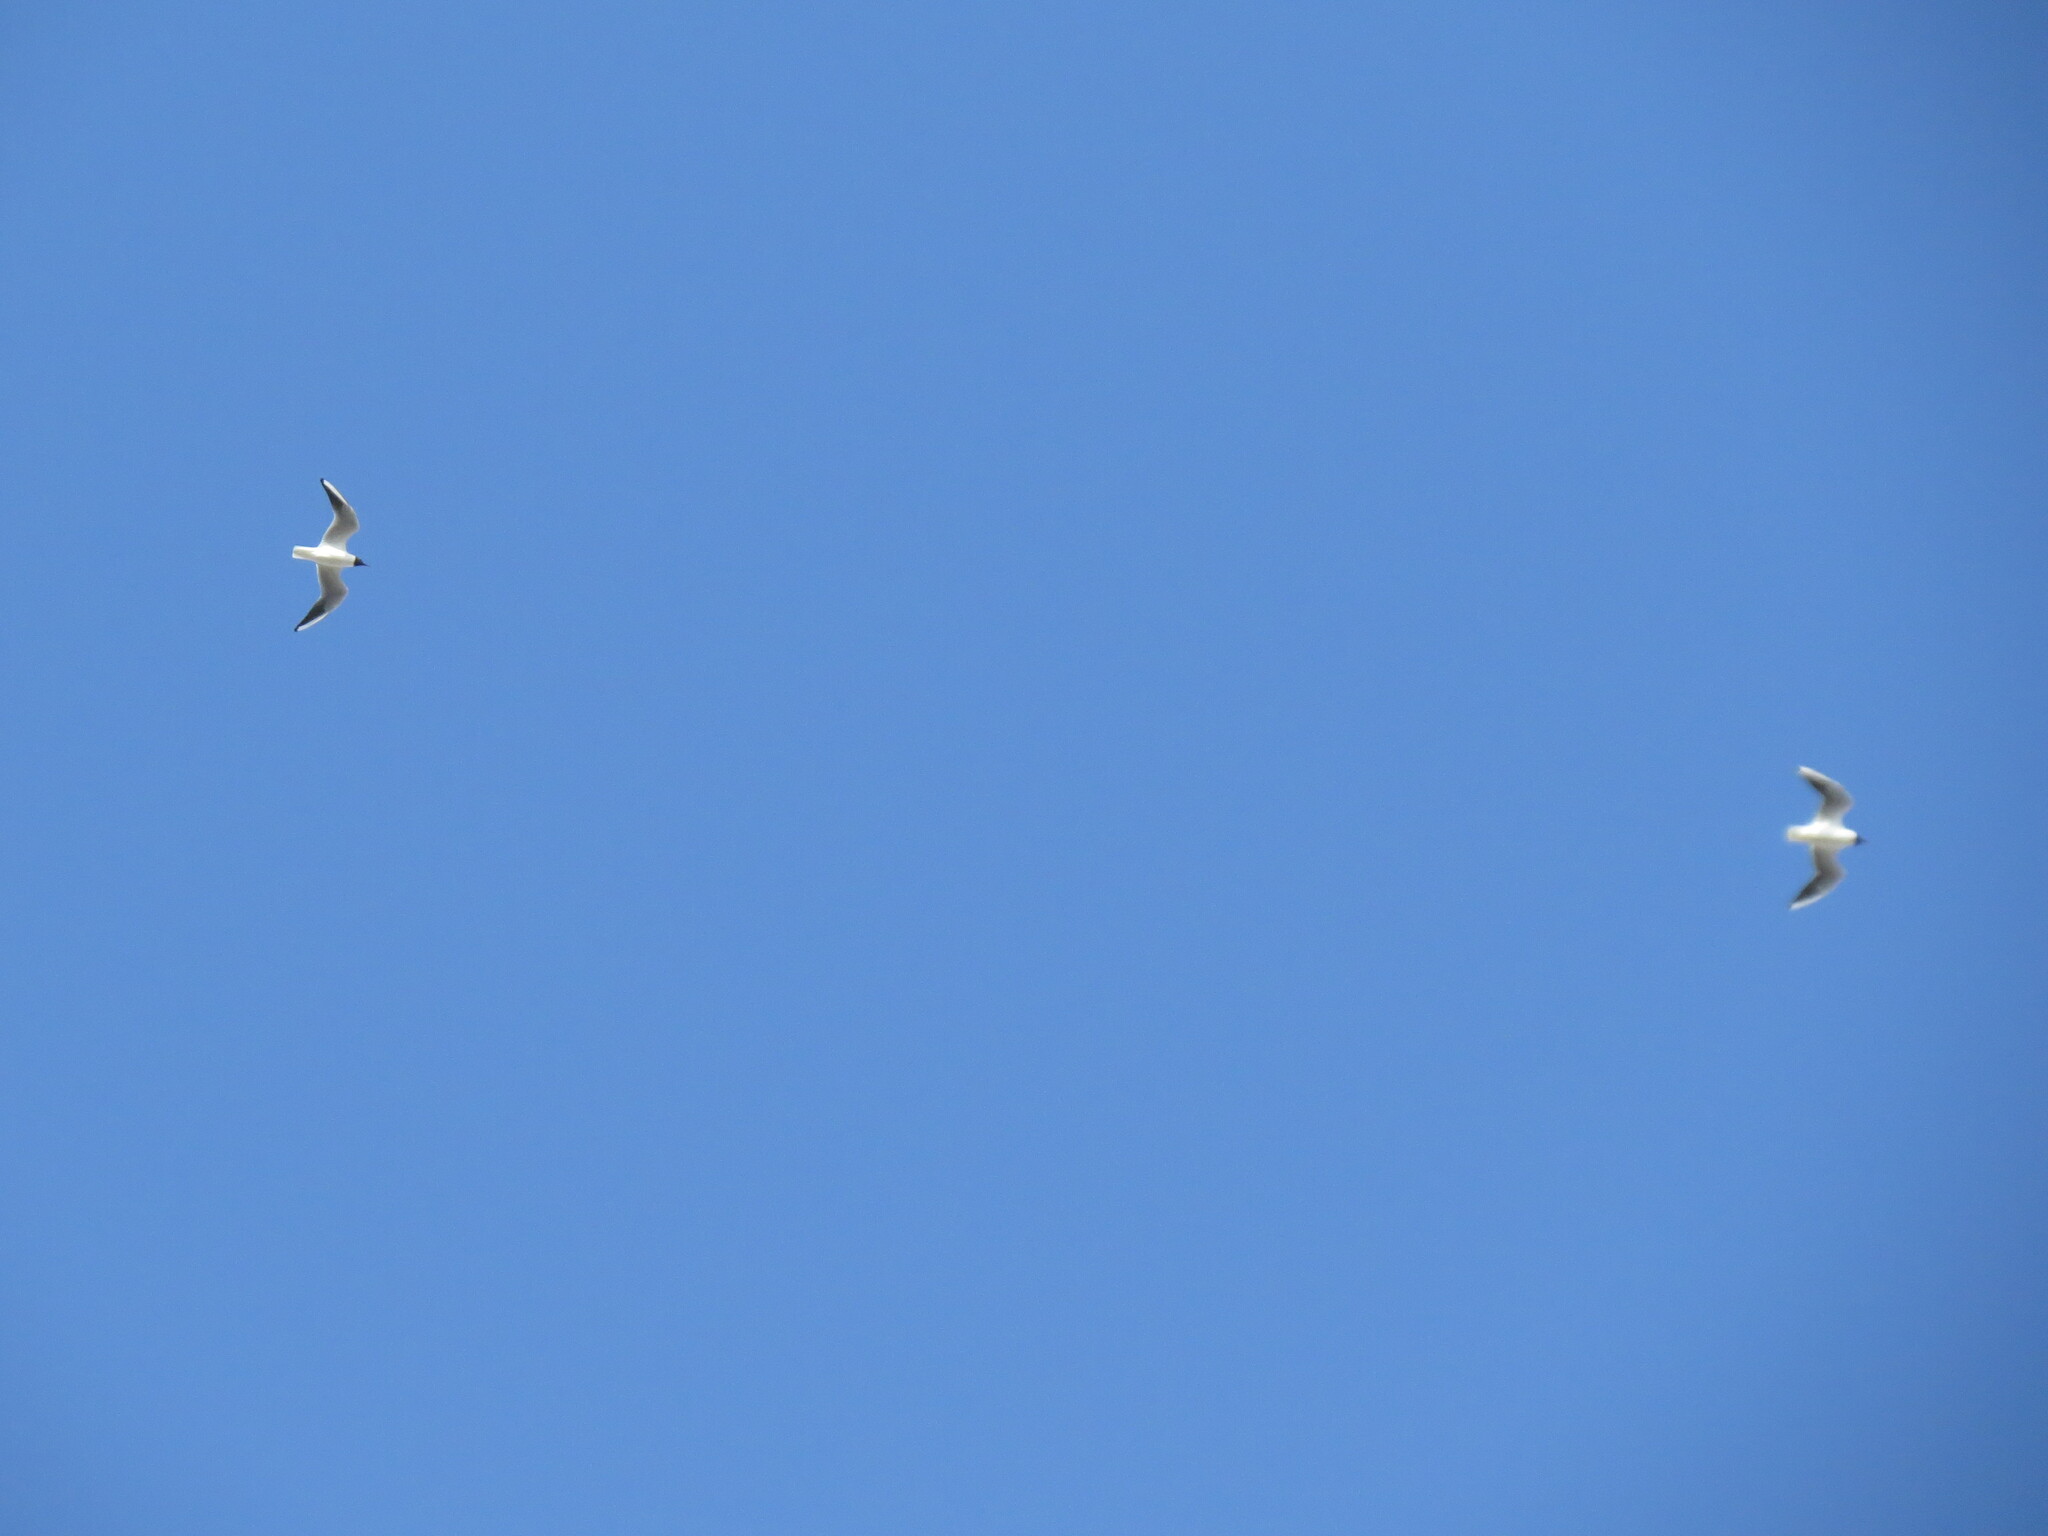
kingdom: Animalia
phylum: Chordata
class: Aves
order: Charadriiformes
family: Laridae
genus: Chroicocephalus
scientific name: Chroicocephalus ridibundus
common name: Black-headed gull
